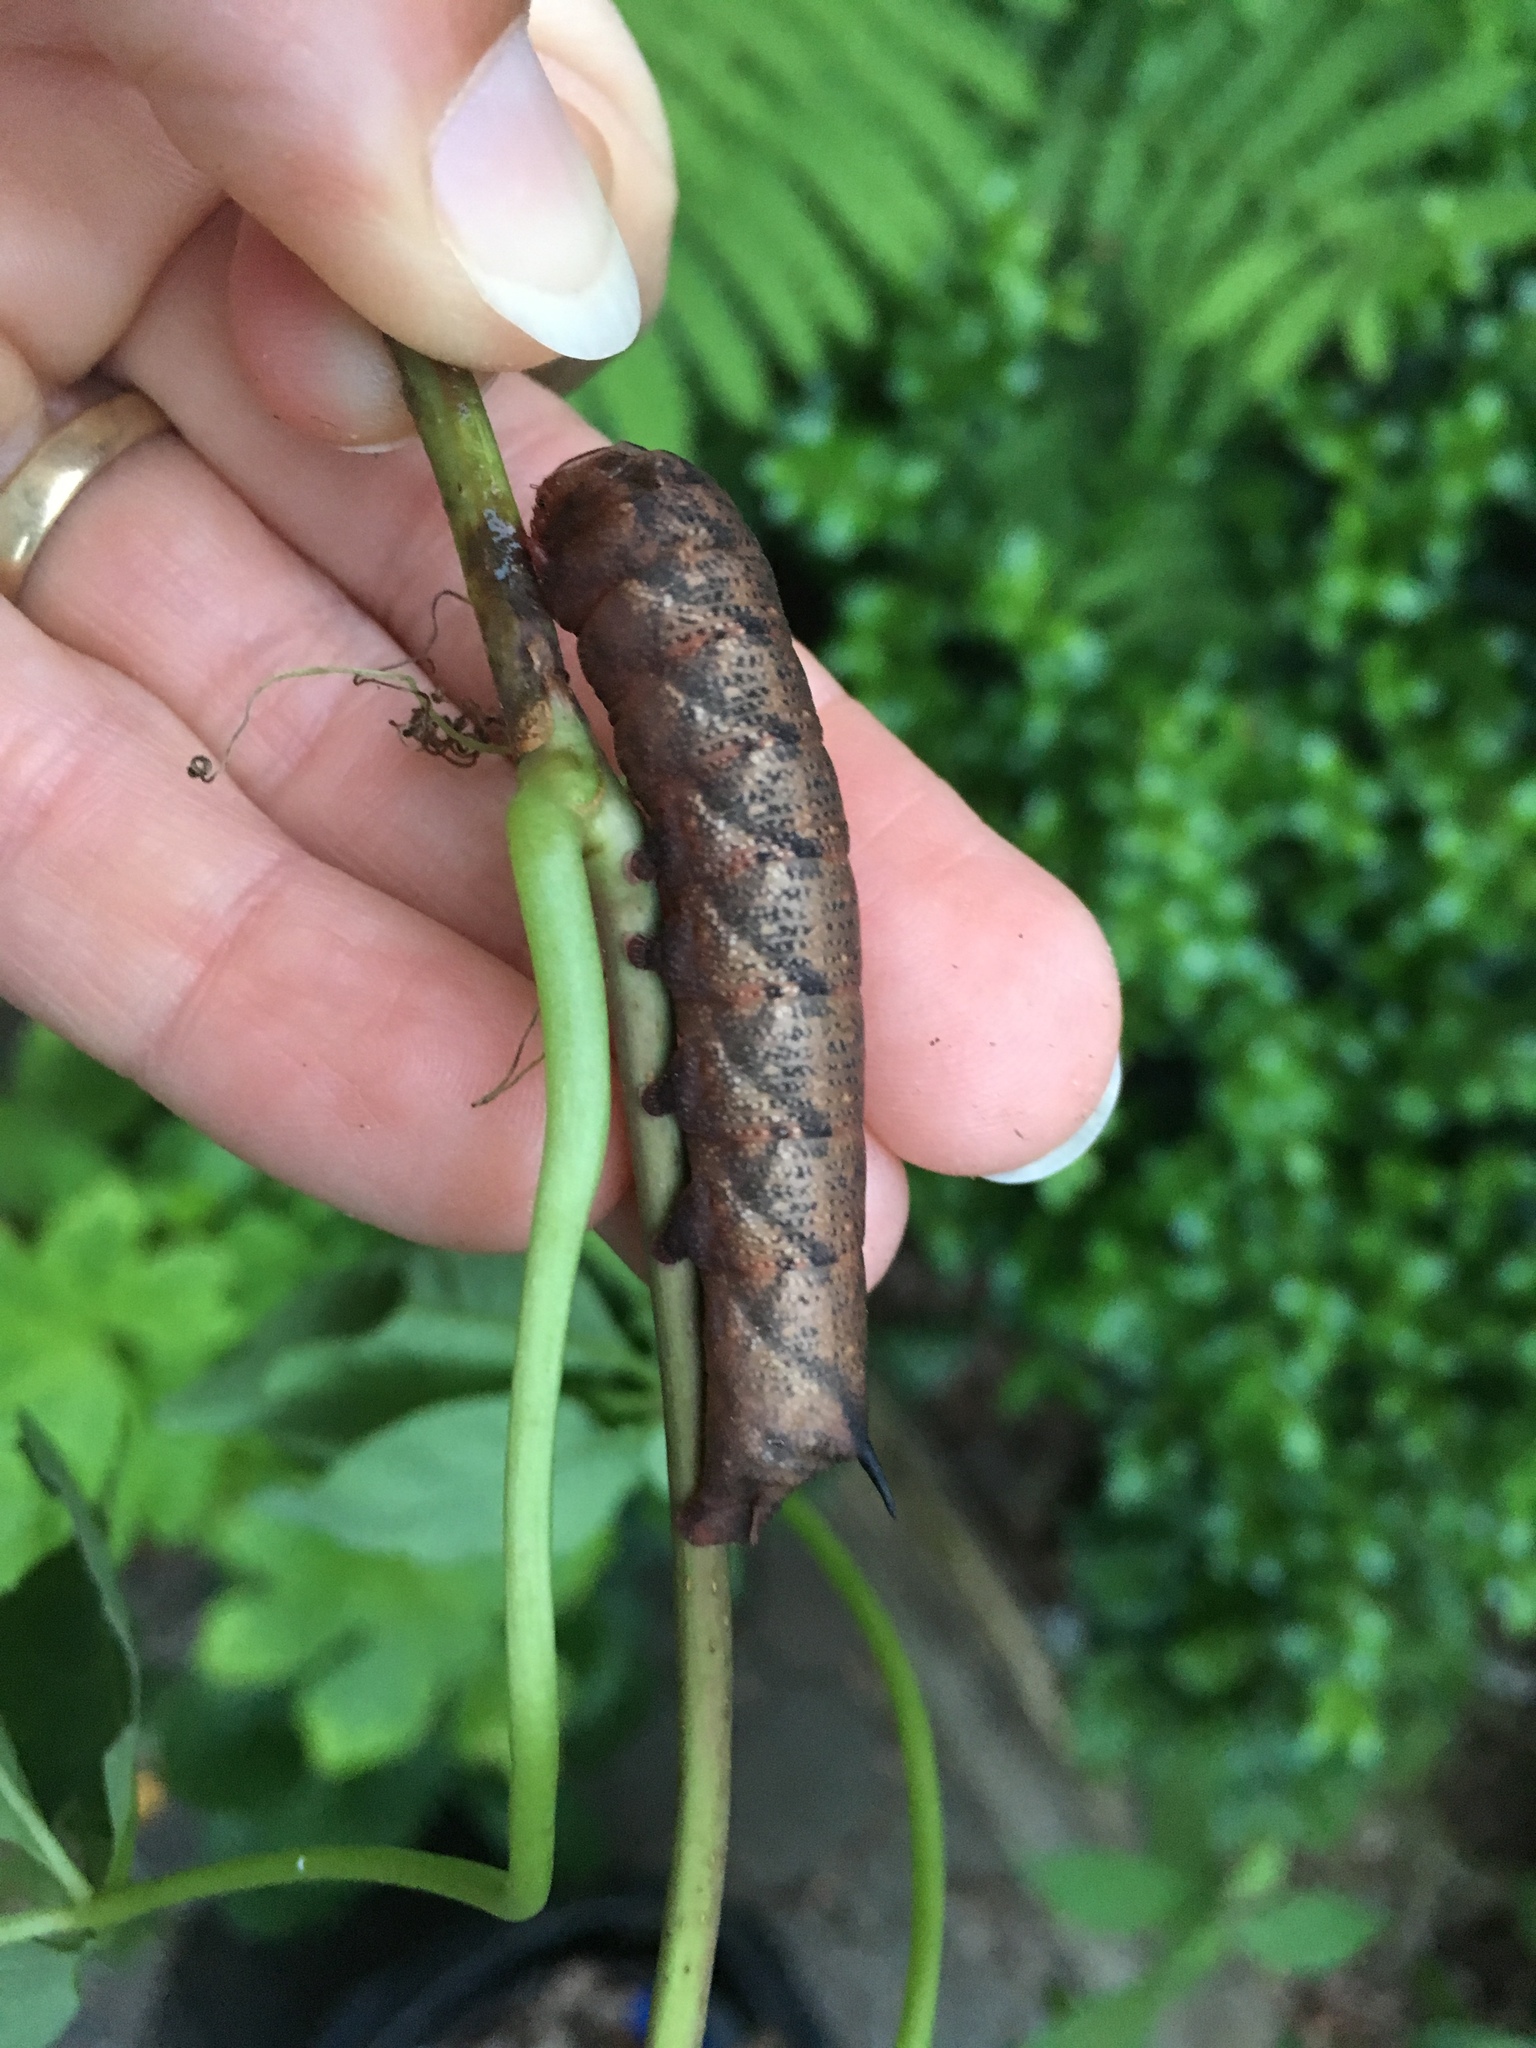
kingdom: Animalia
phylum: Arthropoda
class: Insecta
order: Lepidoptera
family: Sphingidae
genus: Amphion
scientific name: Amphion floridensis
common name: Nessus sphinx
